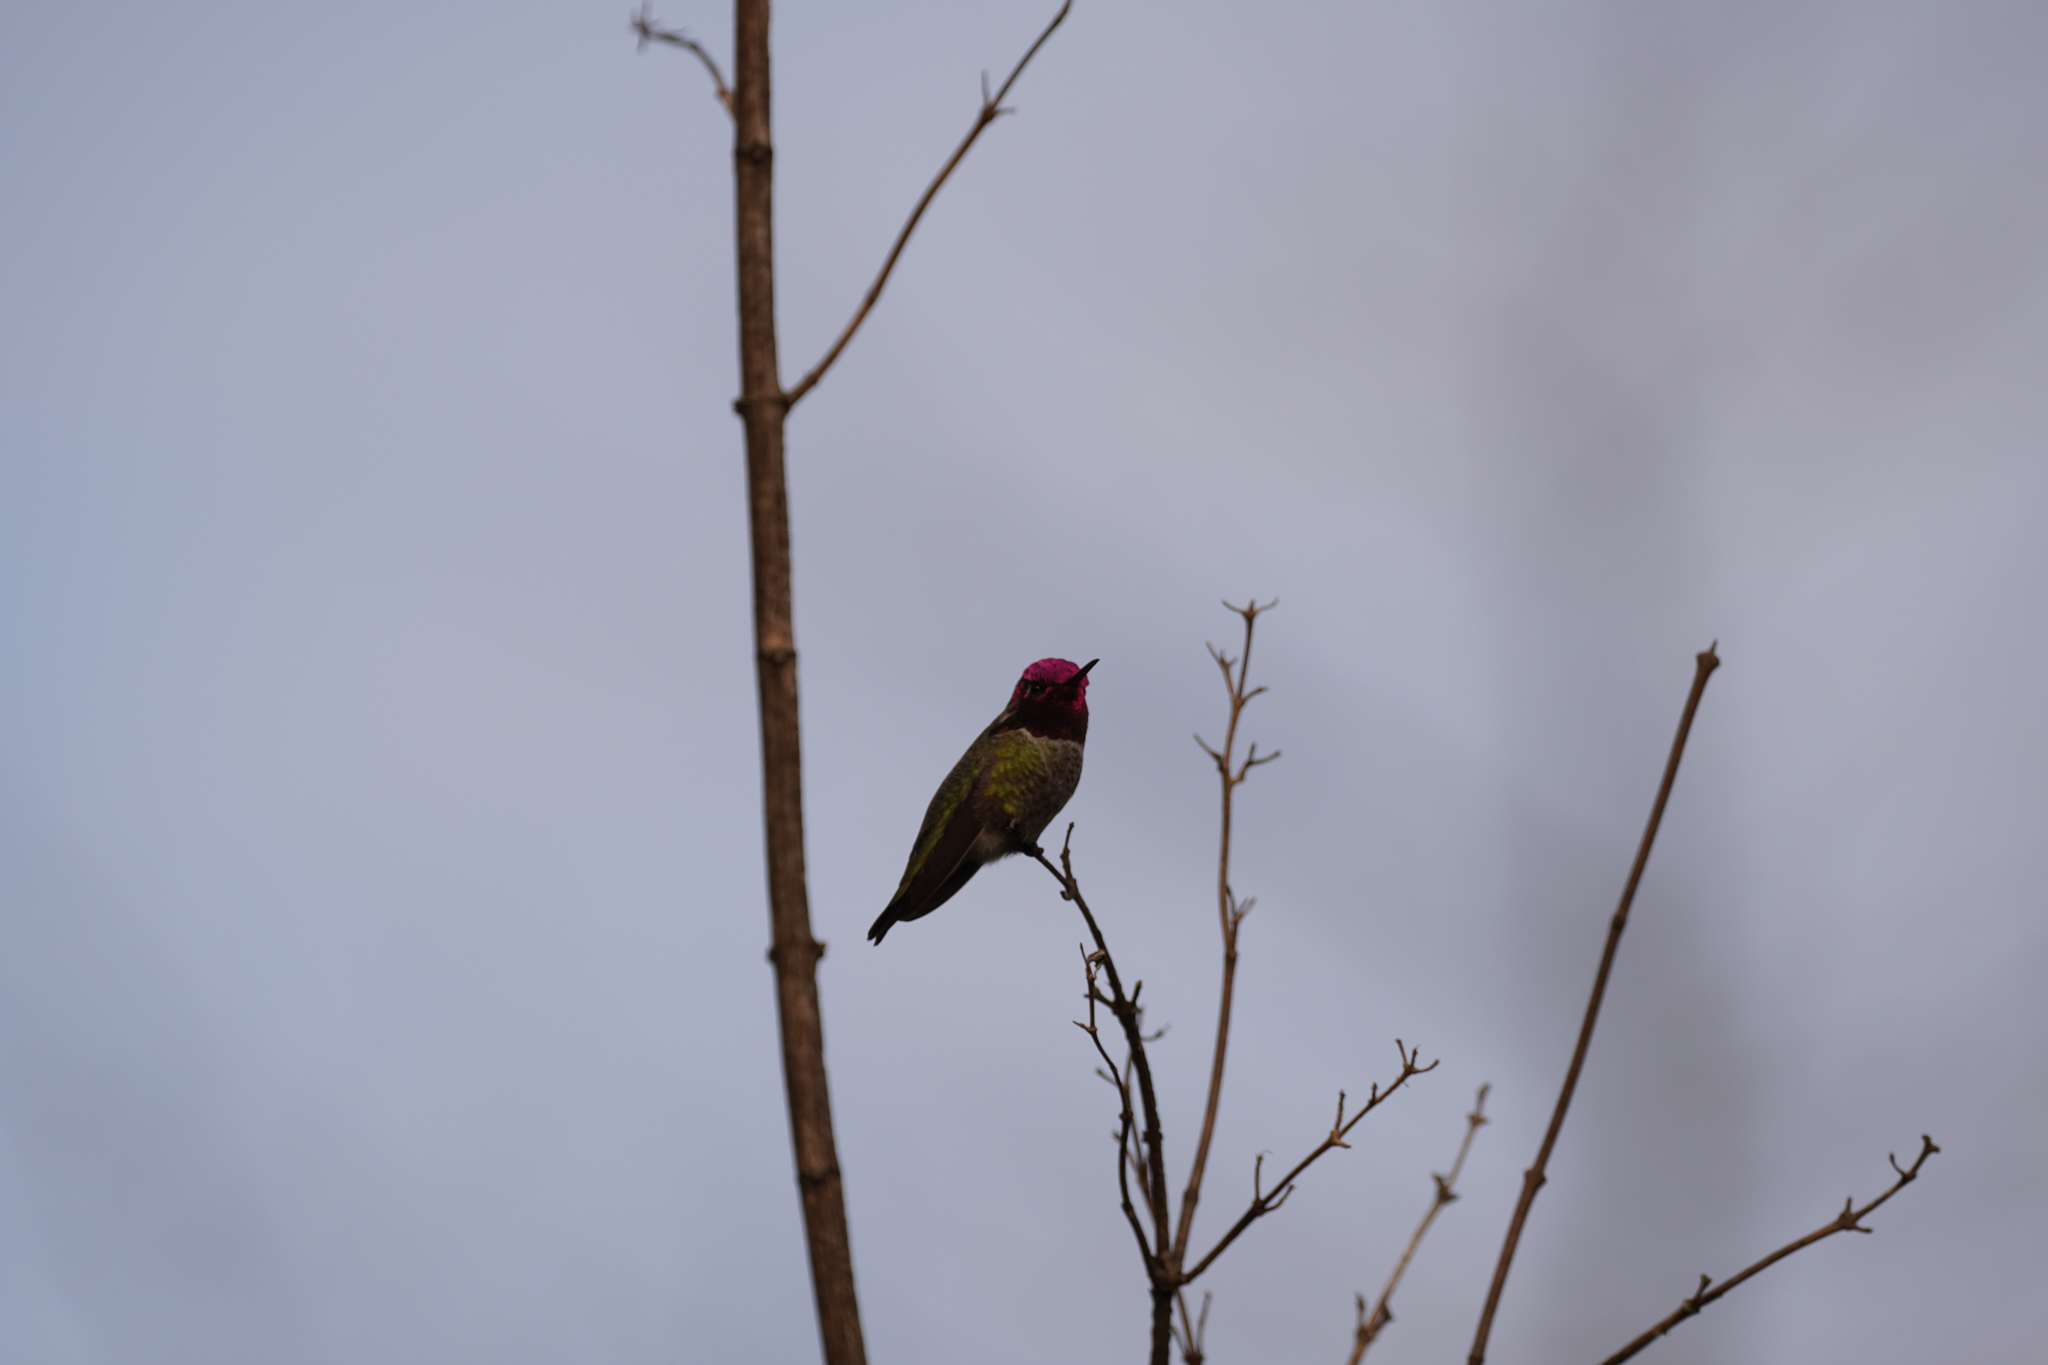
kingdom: Animalia
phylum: Chordata
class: Aves
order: Apodiformes
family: Trochilidae
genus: Calypte
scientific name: Calypte anna
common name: Anna's hummingbird
